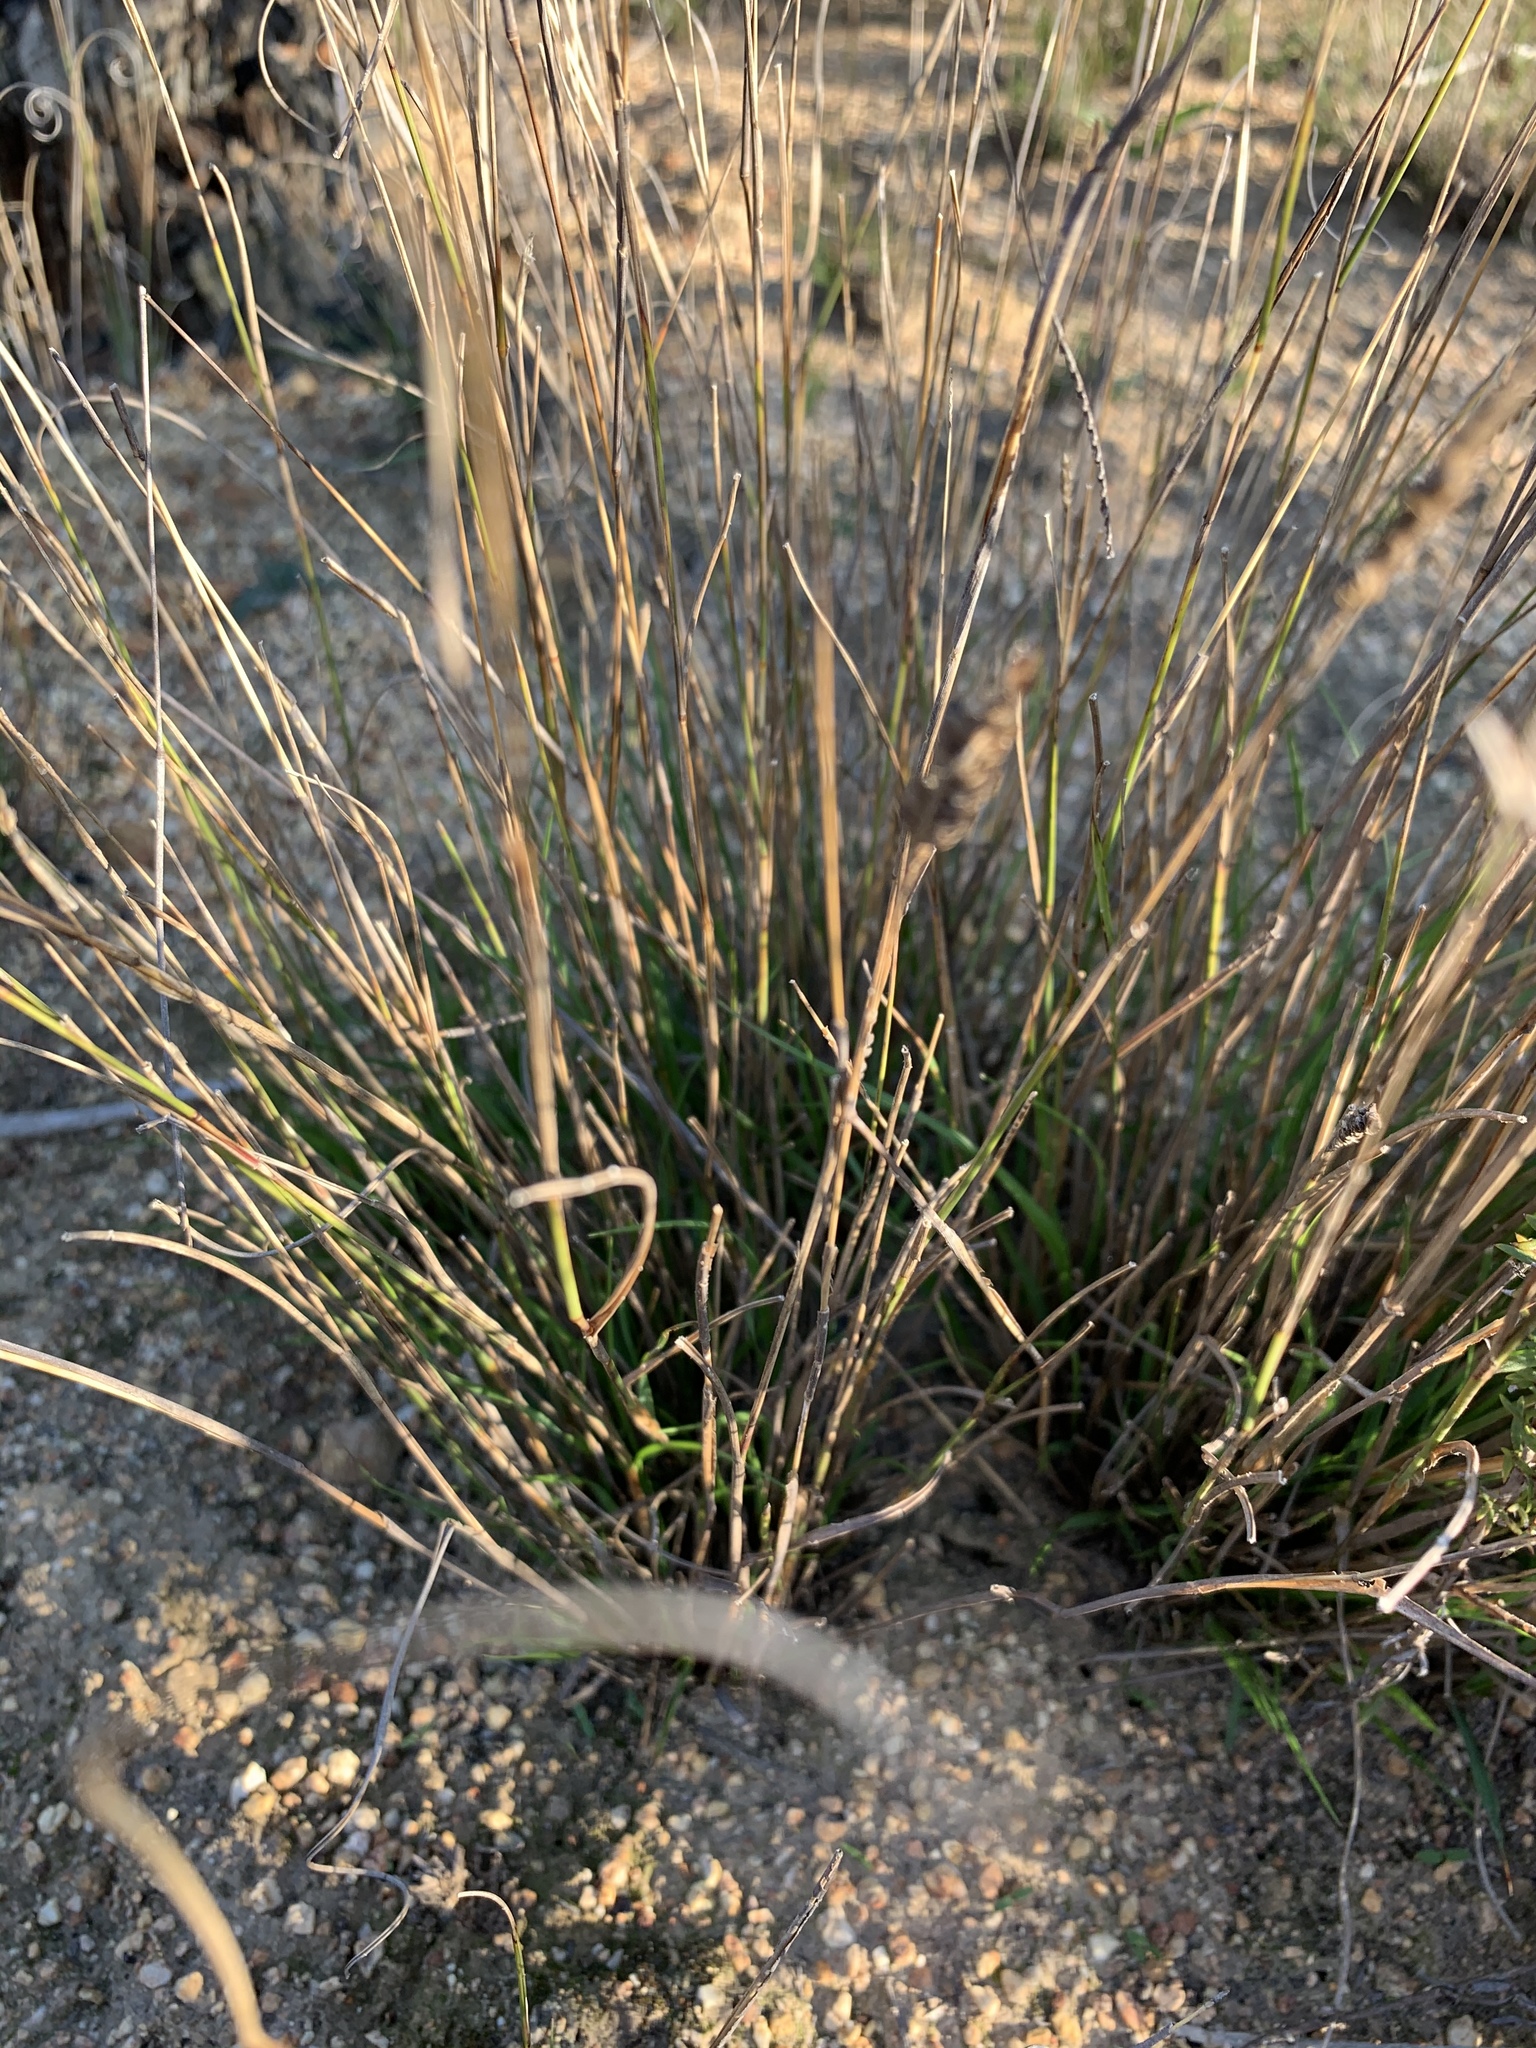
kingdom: Plantae
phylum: Tracheophyta
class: Liliopsida
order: Poales
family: Poaceae
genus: Tribolium
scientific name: Tribolium uniolae
